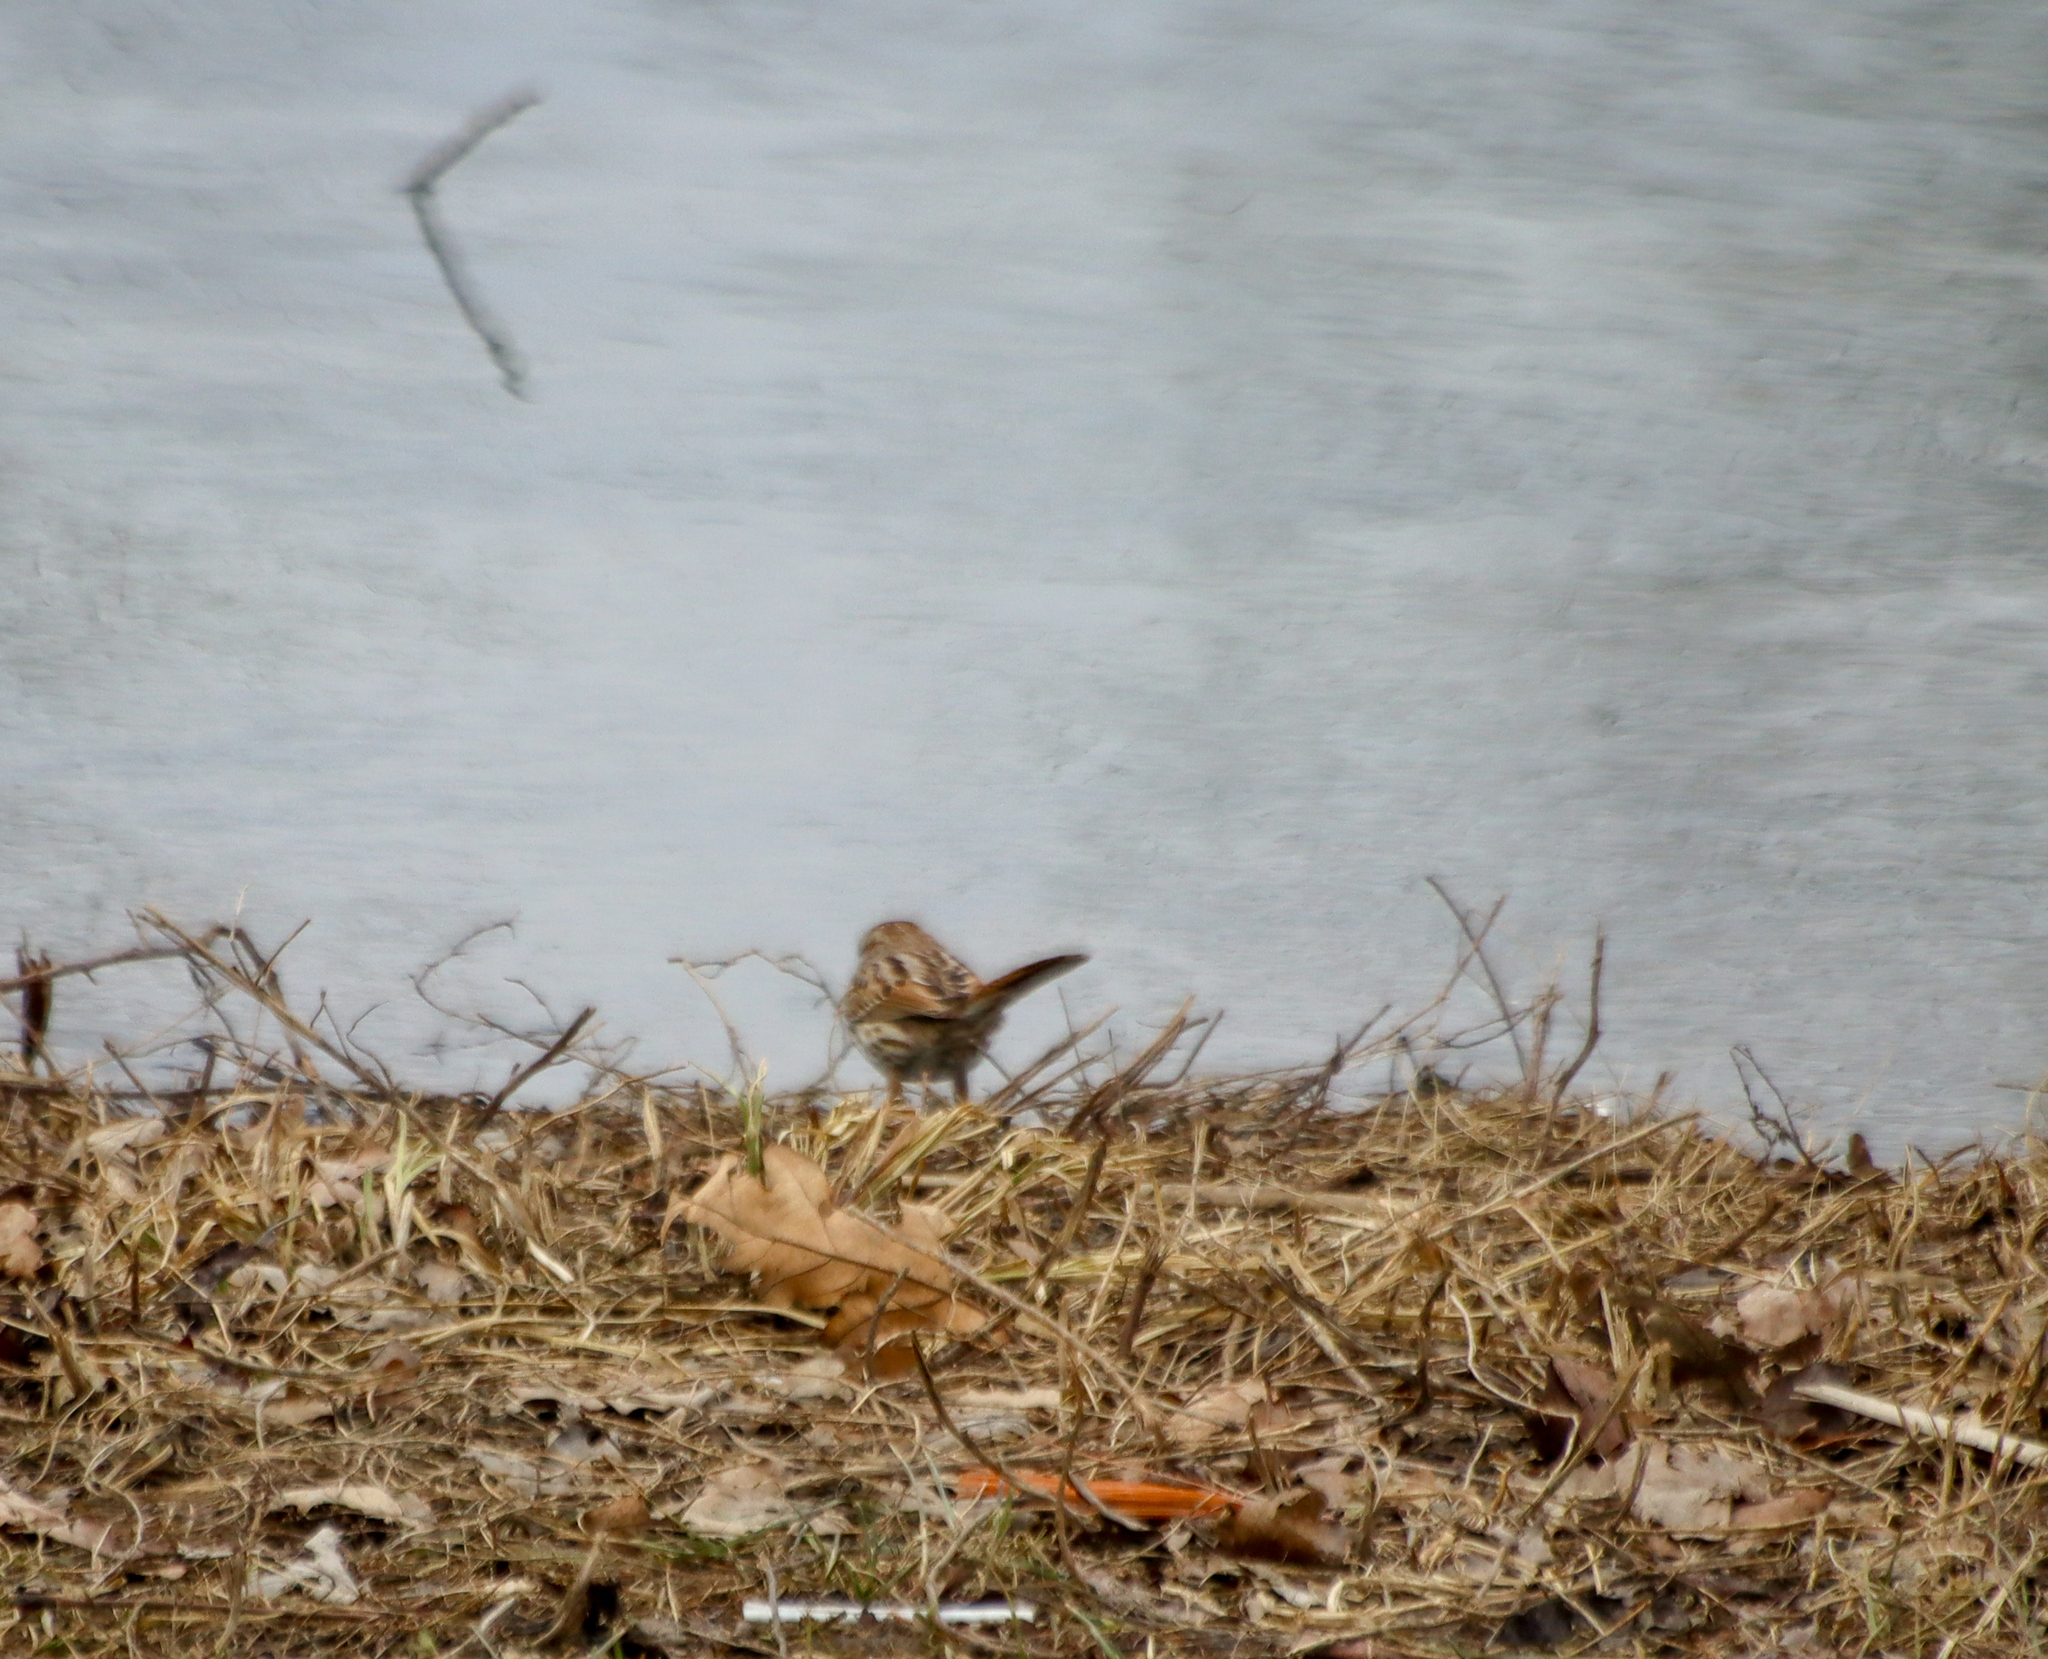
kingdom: Animalia
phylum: Chordata
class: Aves
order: Passeriformes
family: Passerellidae
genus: Melospiza
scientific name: Melospiza melodia
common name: Song sparrow
